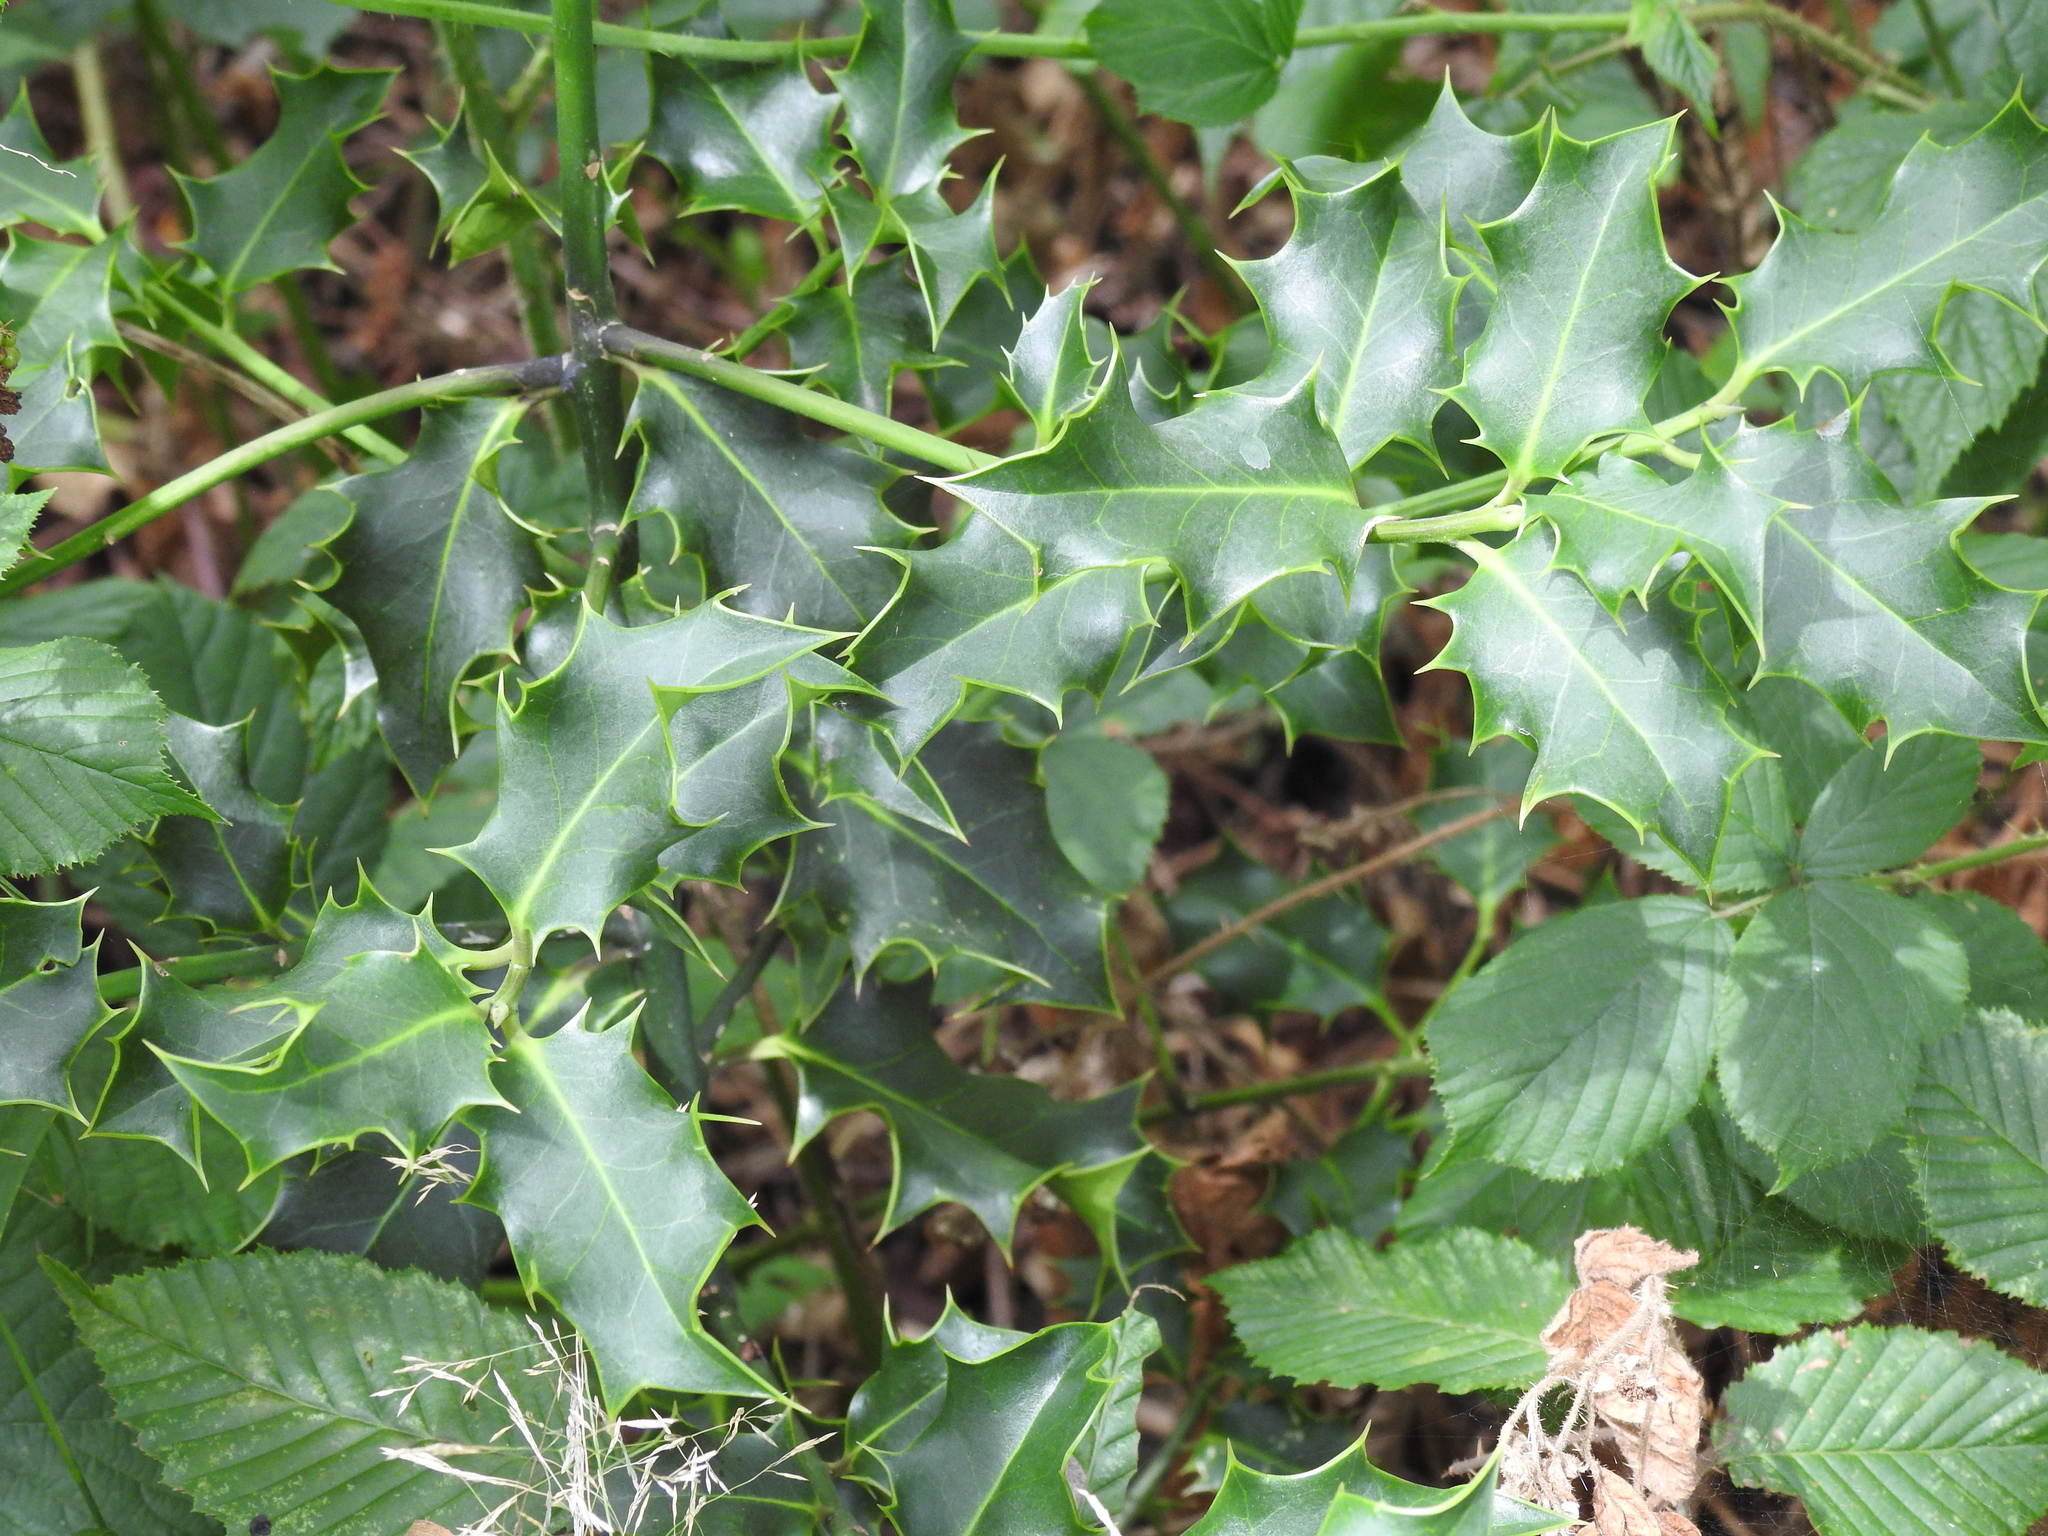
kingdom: Plantae
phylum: Tracheophyta
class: Magnoliopsida
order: Aquifoliales
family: Aquifoliaceae
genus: Ilex
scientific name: Ilex aquifolium
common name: English holly
